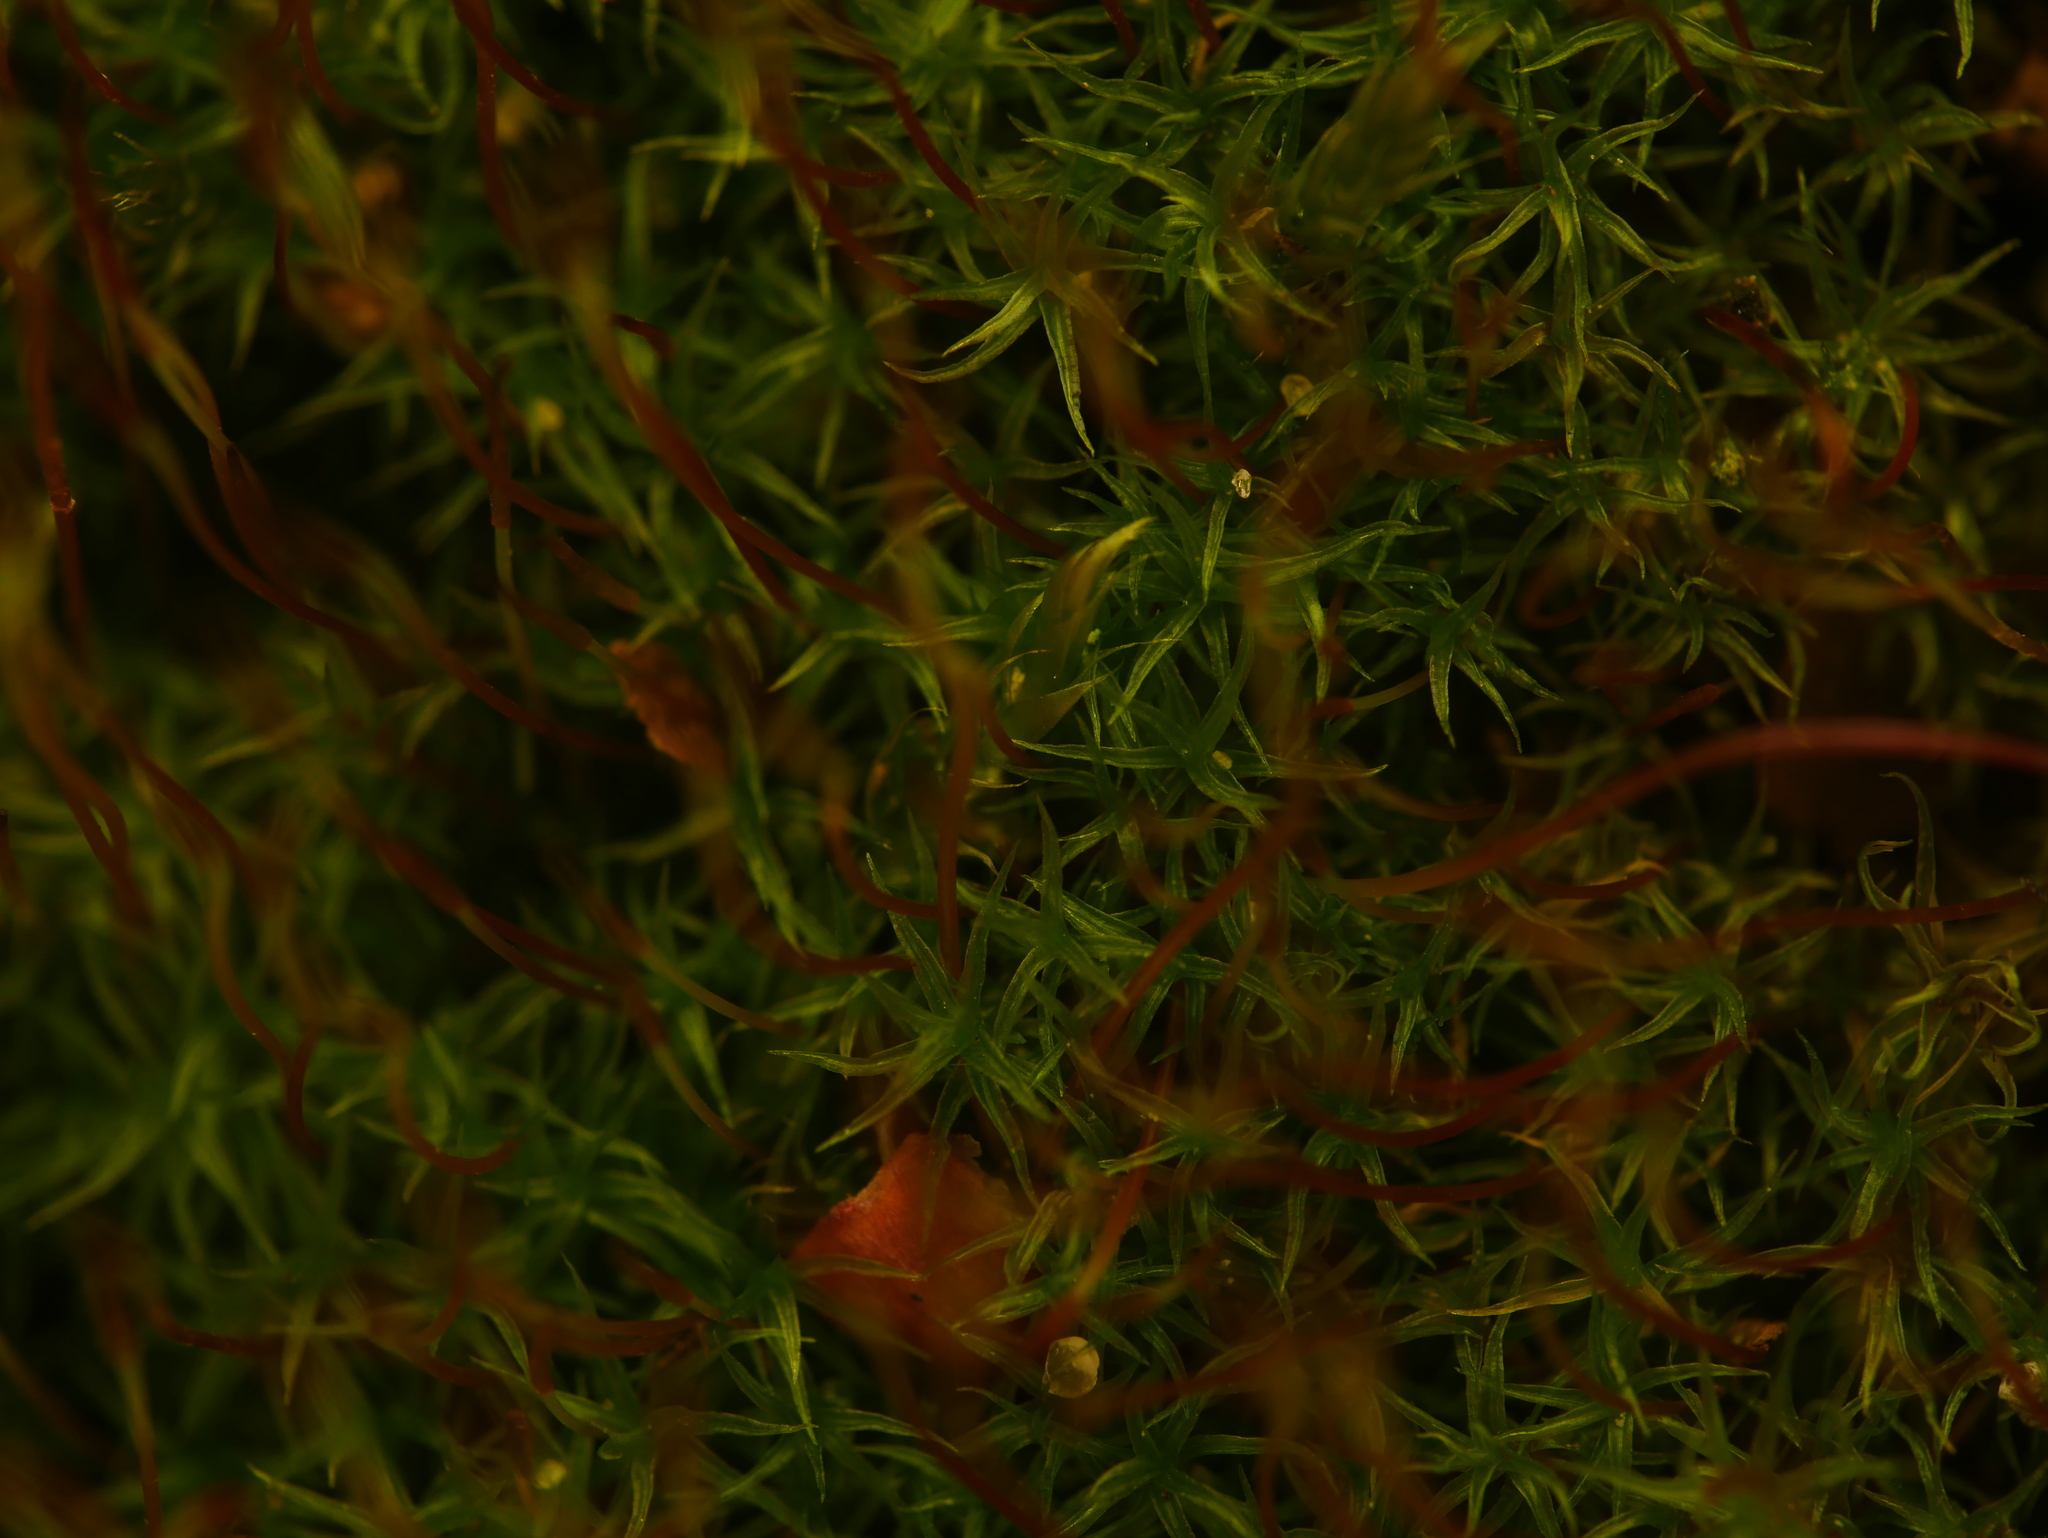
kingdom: Plantae
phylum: Bryophyta
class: Bryopsida
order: Dicranales
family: Ditrichaceae
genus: Ceratodon
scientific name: Ceratodon purpureus
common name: Redshank
